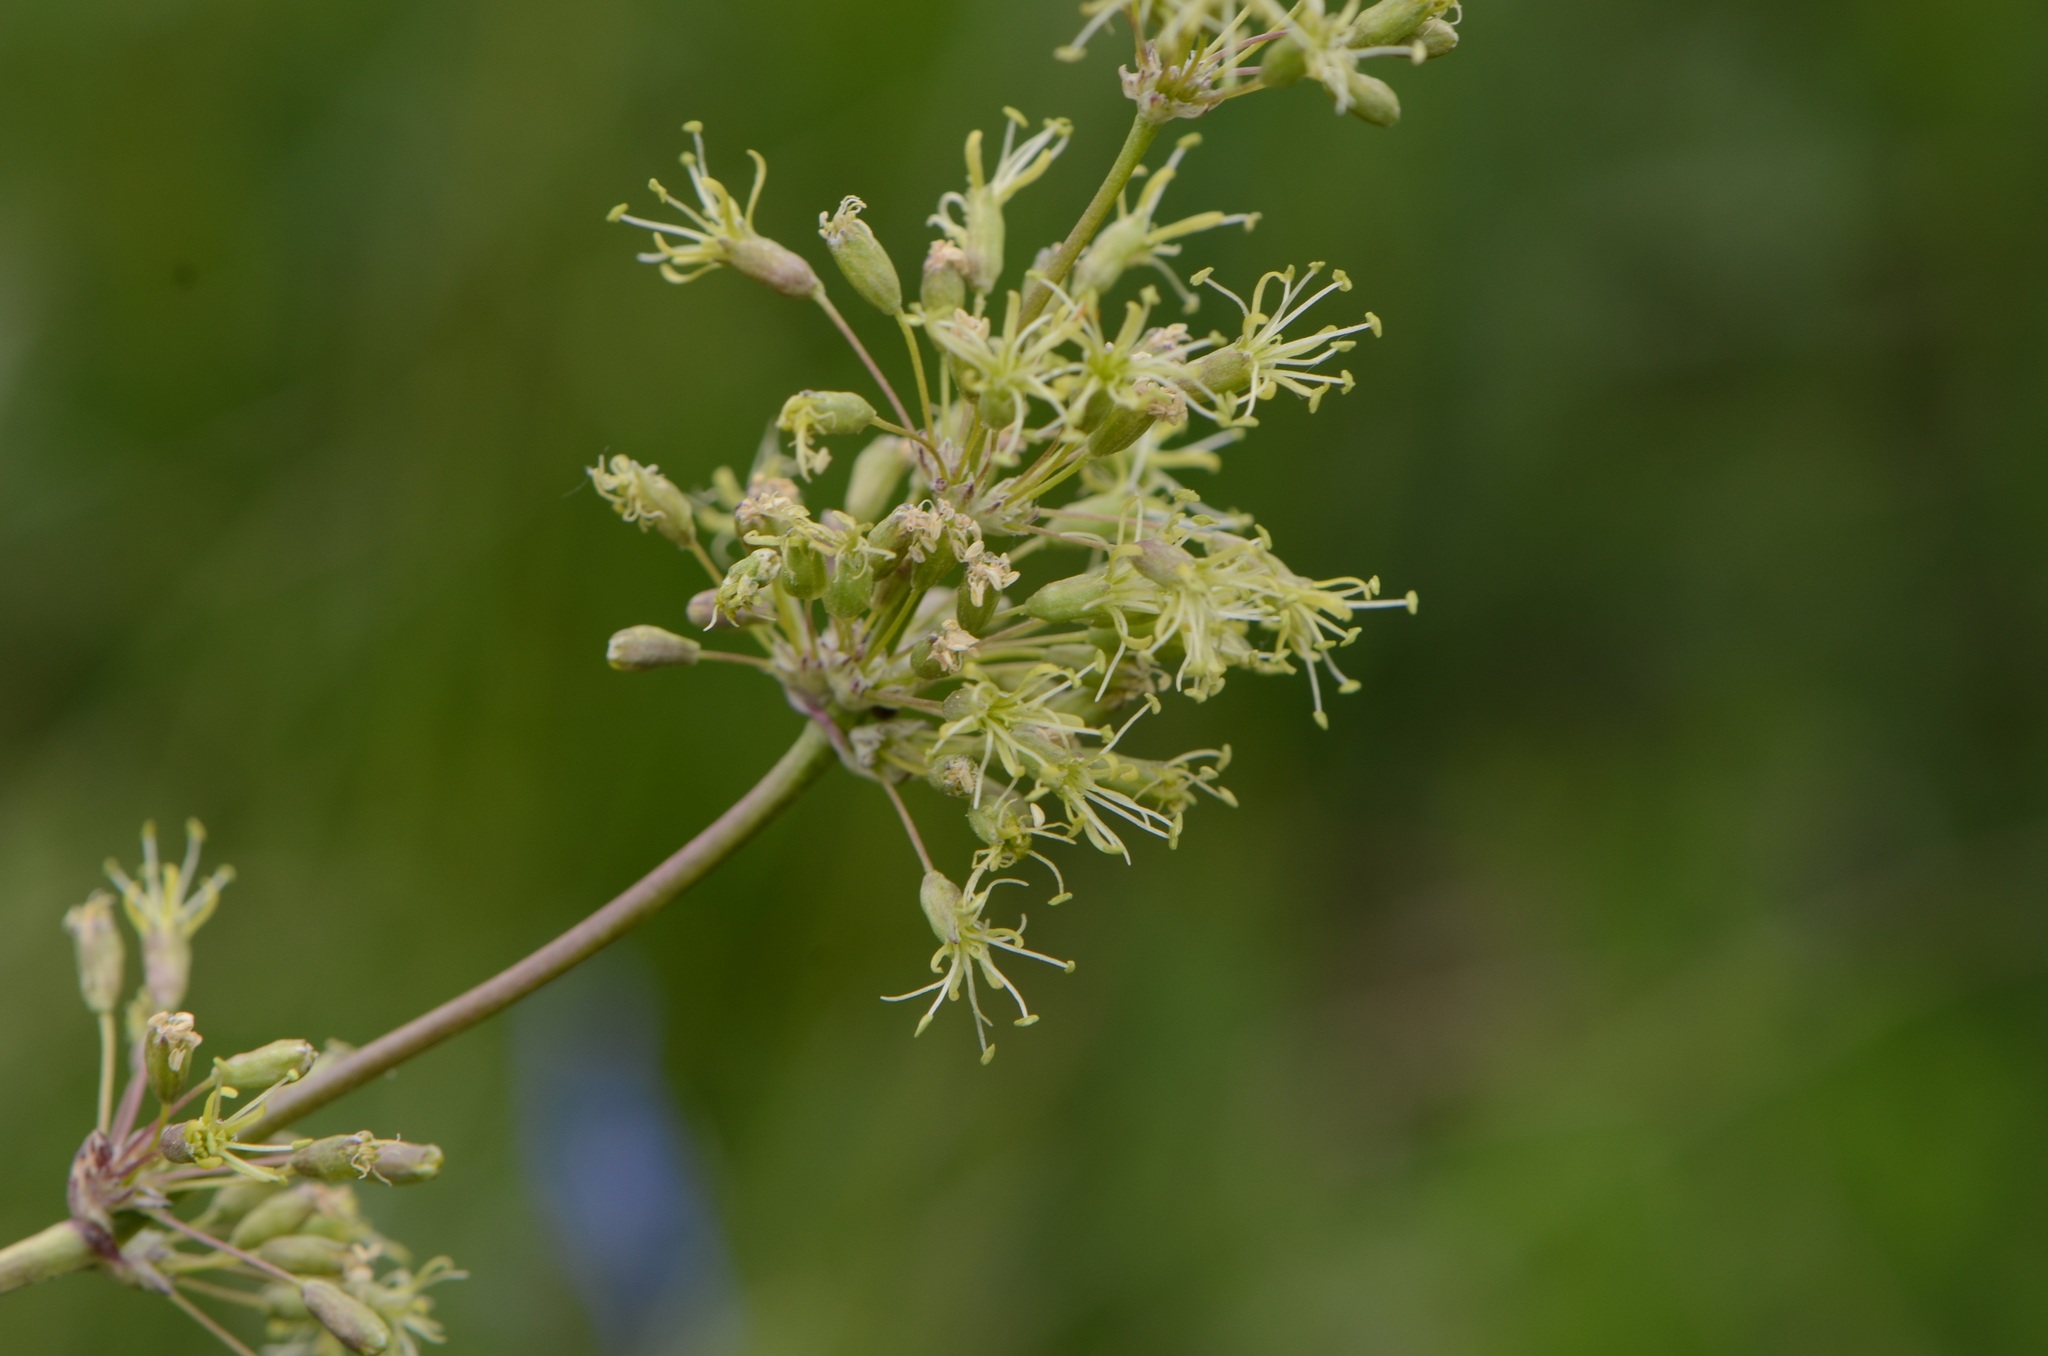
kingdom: Plantae
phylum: Tracheophyta
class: Magnoliopsida
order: Caryophyllales
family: Caryophyllaceae
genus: Silene
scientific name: Silene otites
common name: Spanish catchfly
